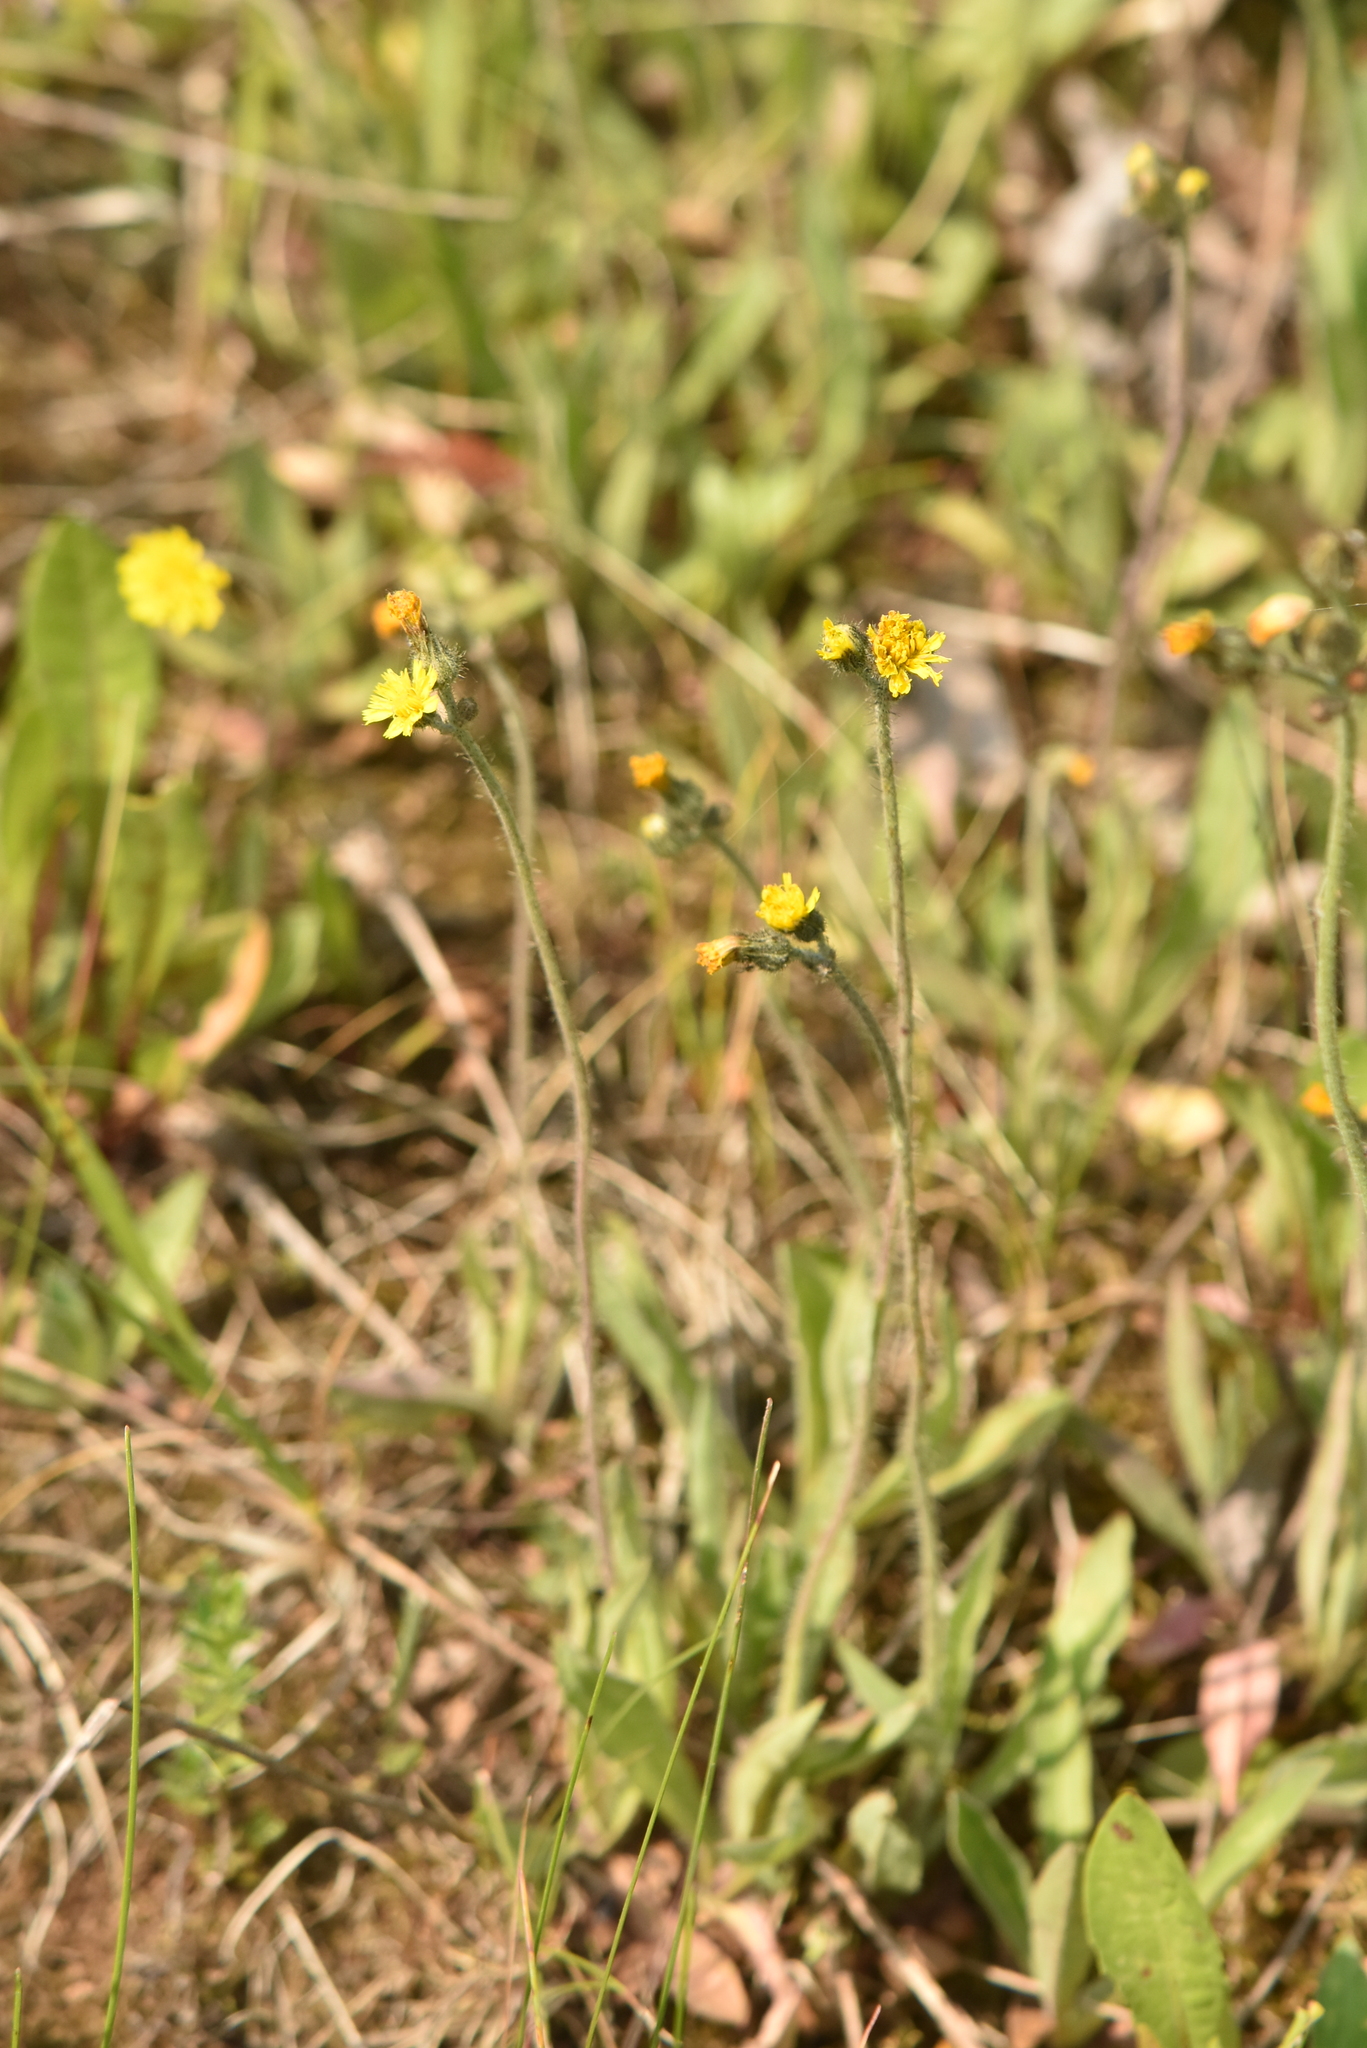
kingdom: Plantae
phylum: Tracheophyta
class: Magnoliopsida
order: Asterales
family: Asteraceae
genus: Pilosella
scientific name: Pilosella officinarum
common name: Mouse-ear hawkweed
